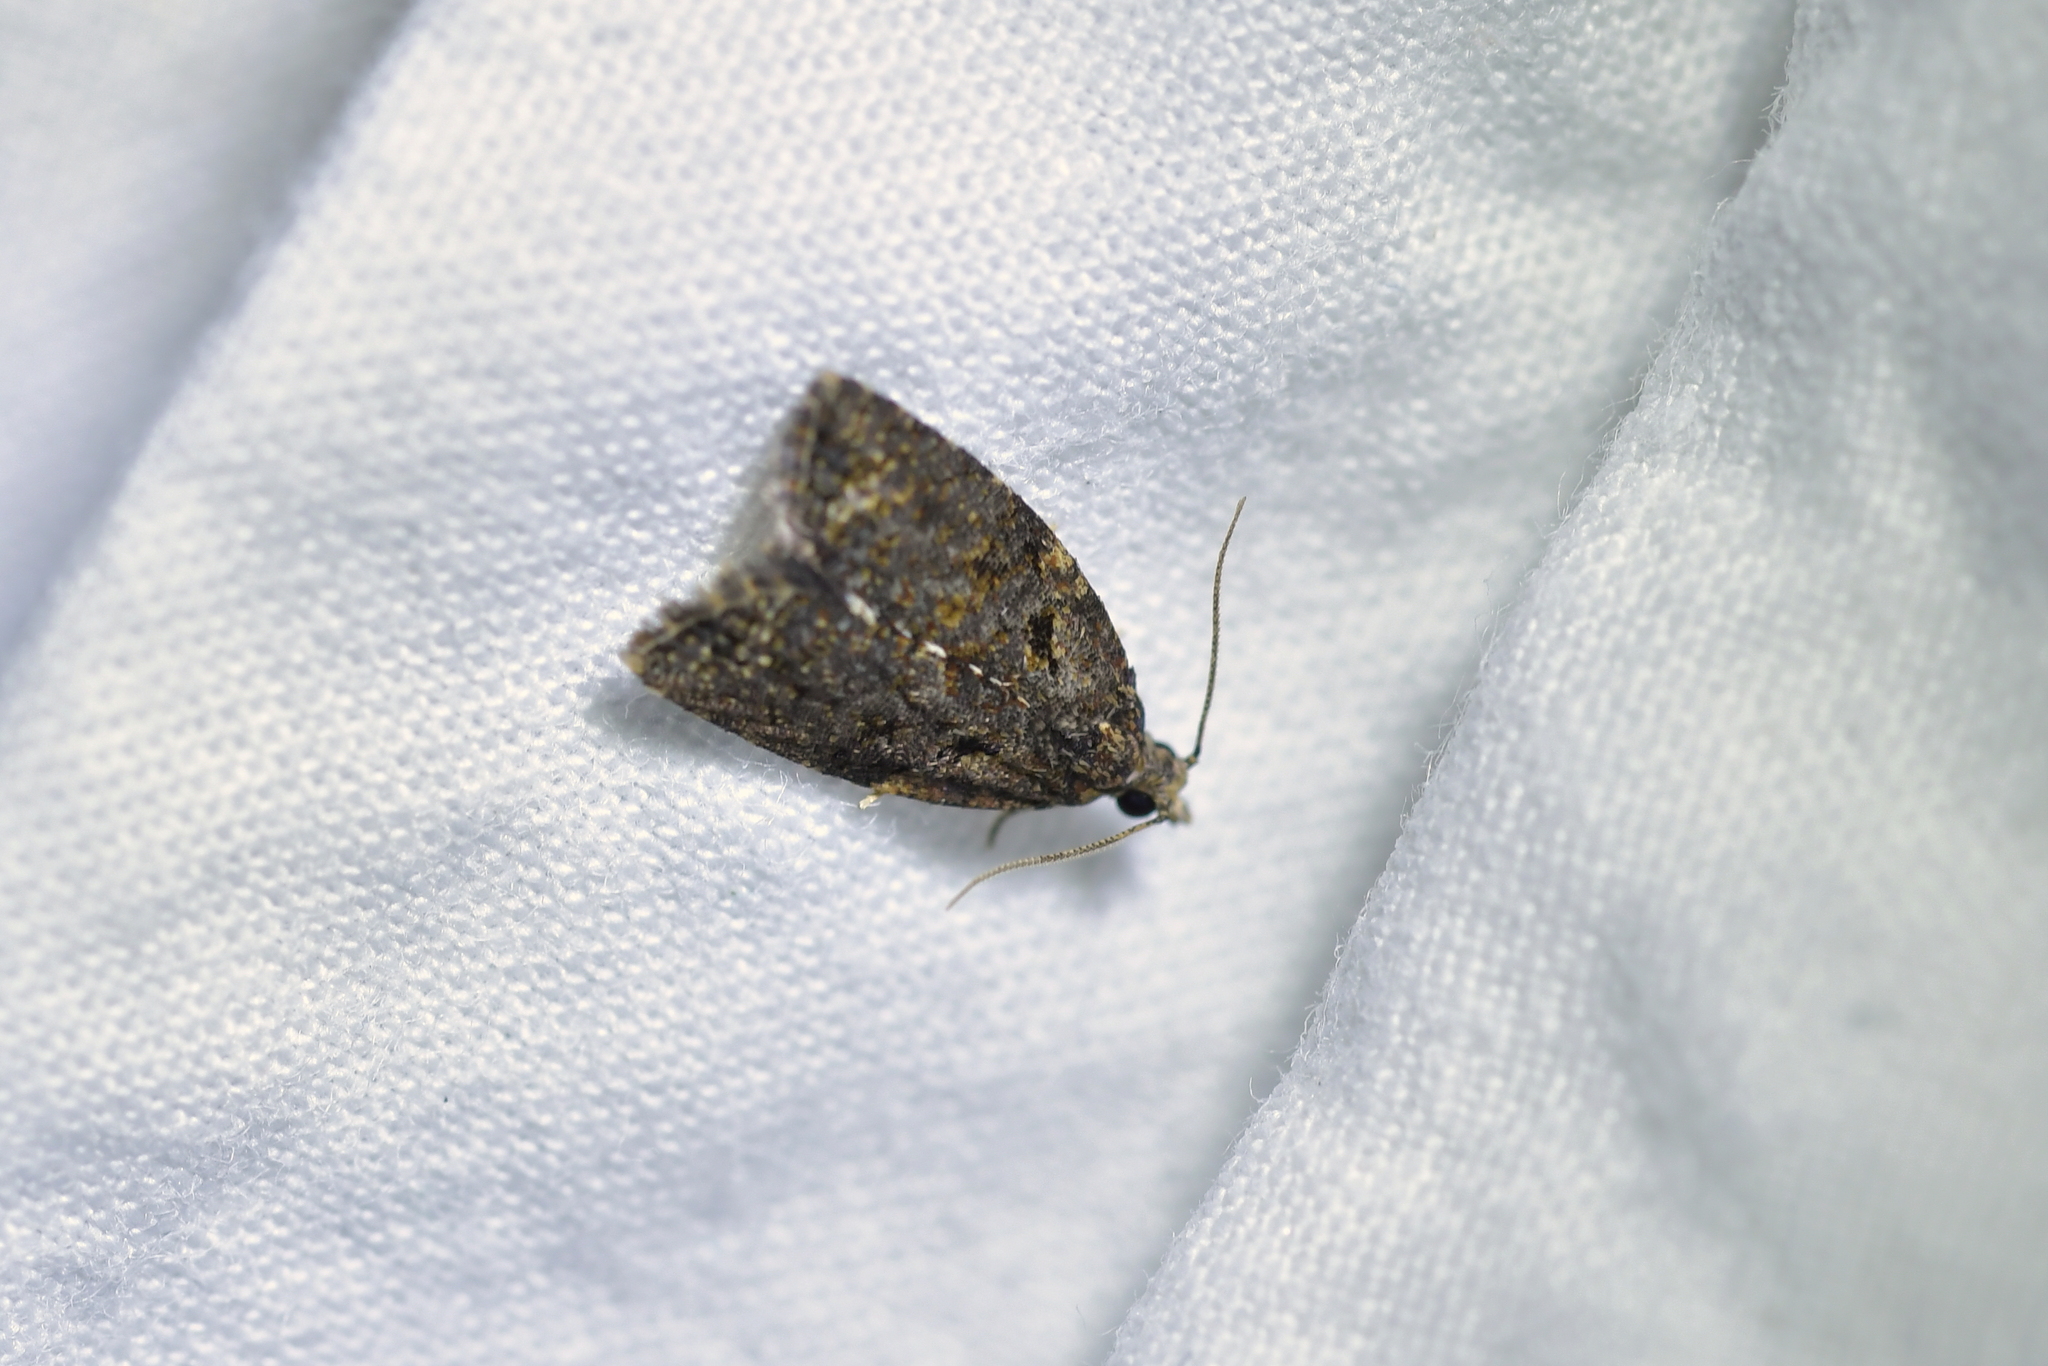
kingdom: Animalia
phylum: Arthropoda
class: Insecta
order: Lepidoptera
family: Tortricidae
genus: Capua
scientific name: Capua intractana
